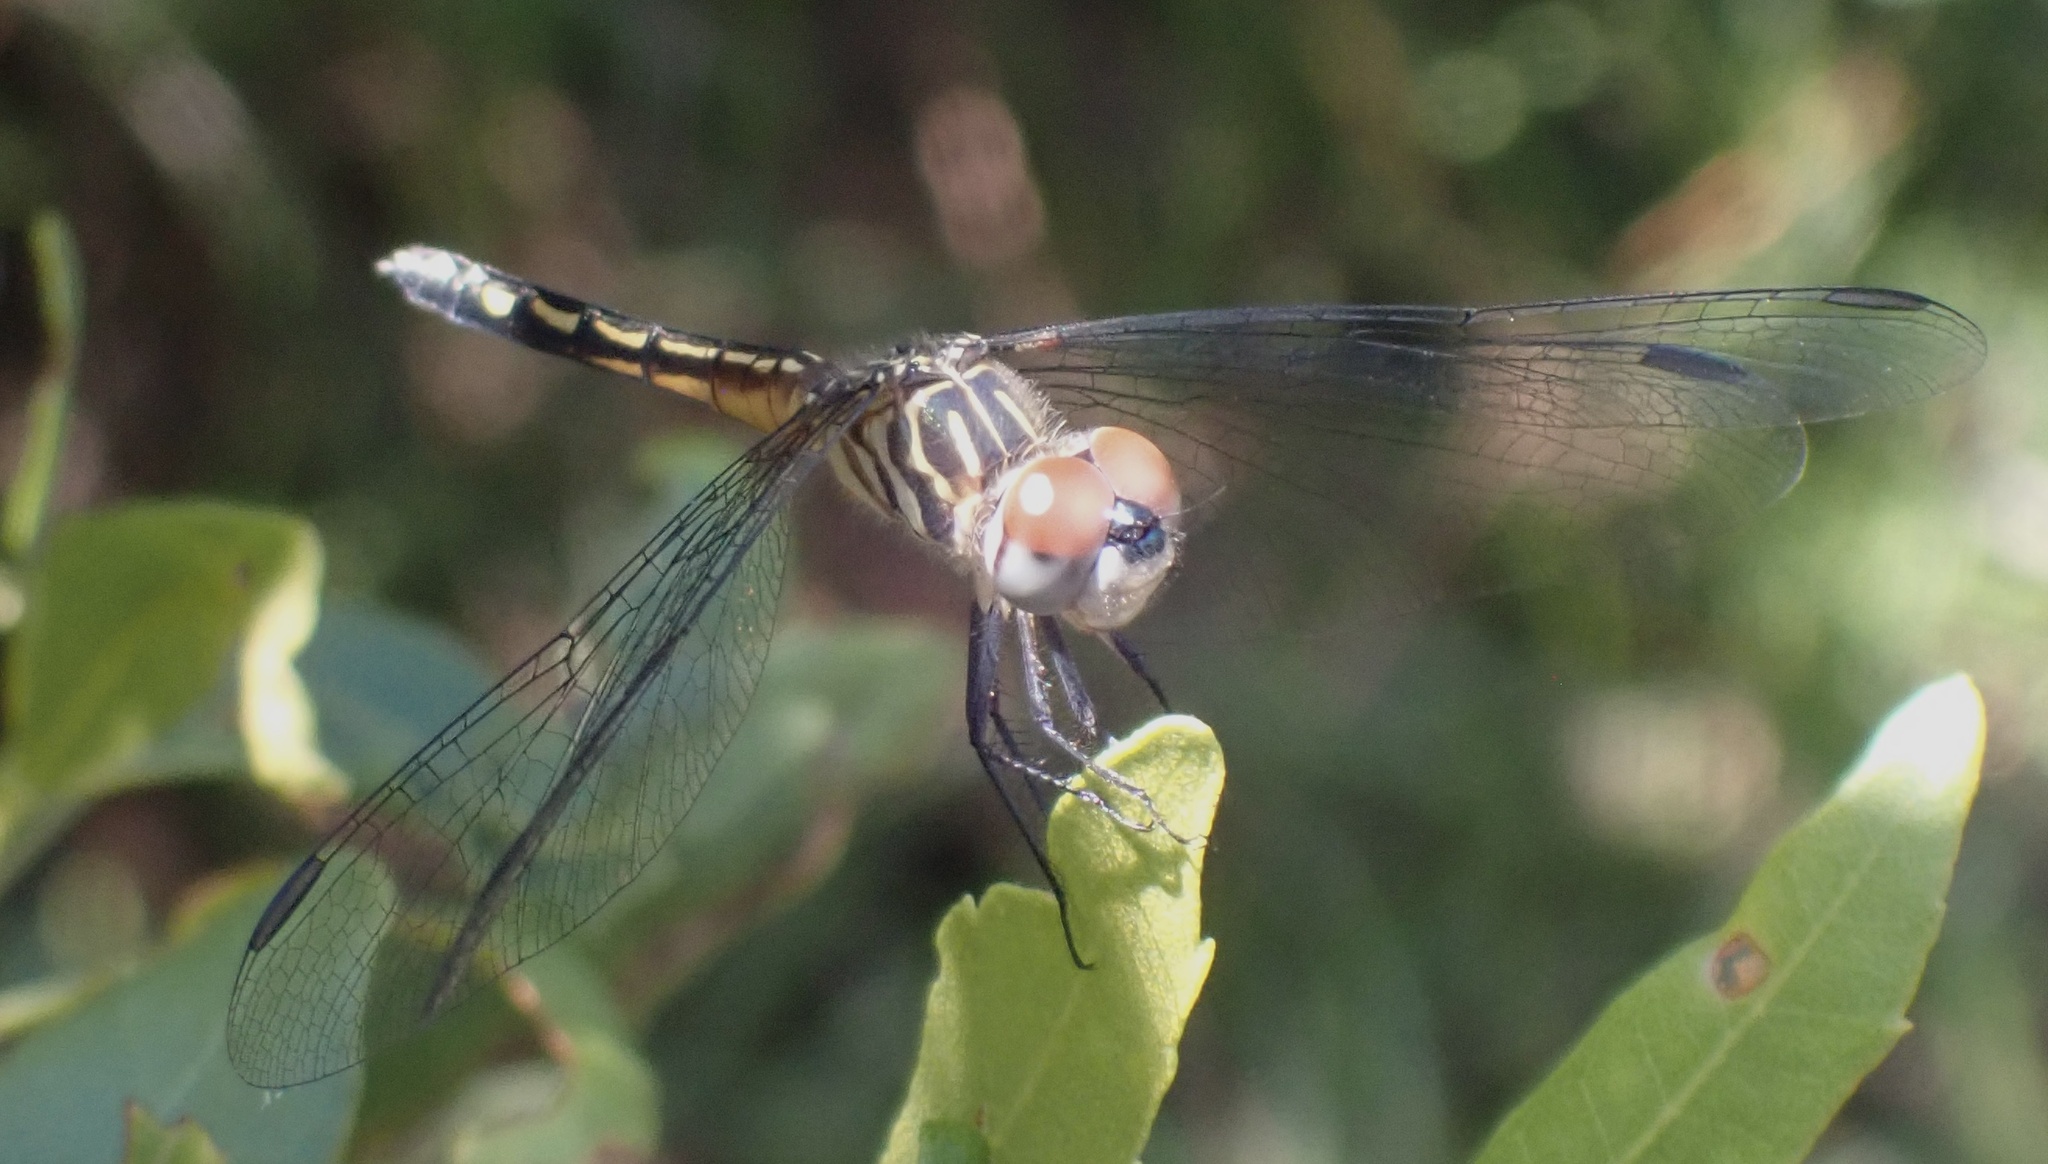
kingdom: Animalia
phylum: Arthropoda
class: Insecta
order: Odonata
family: Libellulidae
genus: Pachydiplax
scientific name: Pachydiplax longipennis
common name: Blue dasher
